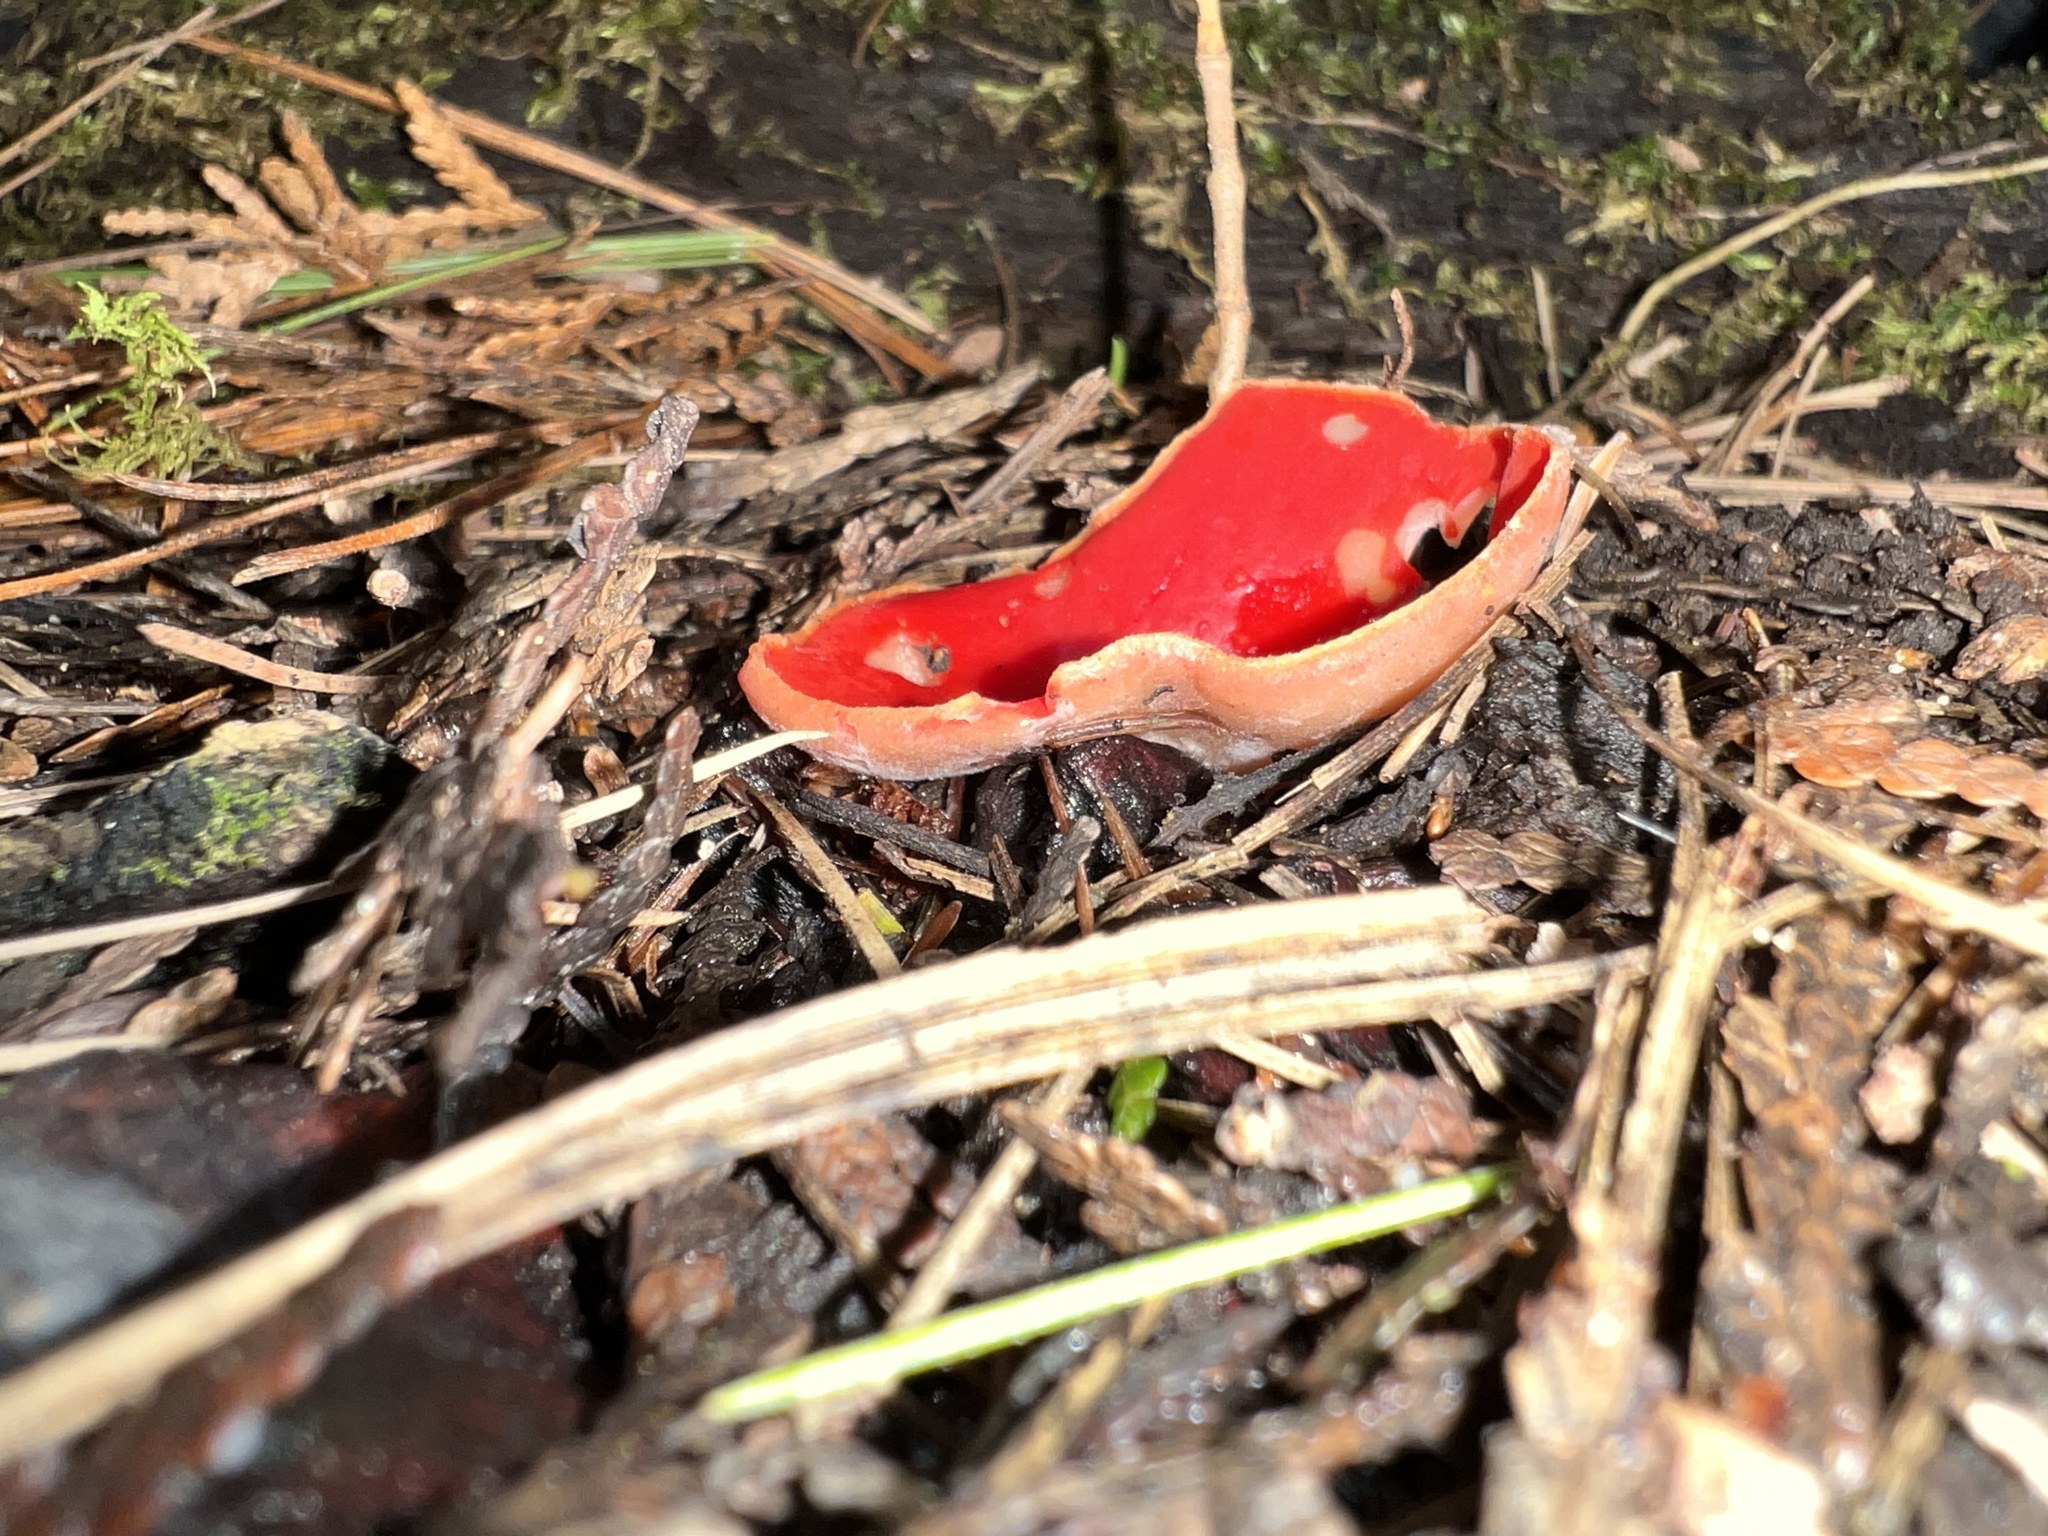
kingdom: Fungi
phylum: Ascomycota
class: Pezizomycetes
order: Pezizales
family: Sarcoscyphaceae
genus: Sarcoscypha
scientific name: Sarcoscypha austriaca
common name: Scarlet elfcup
